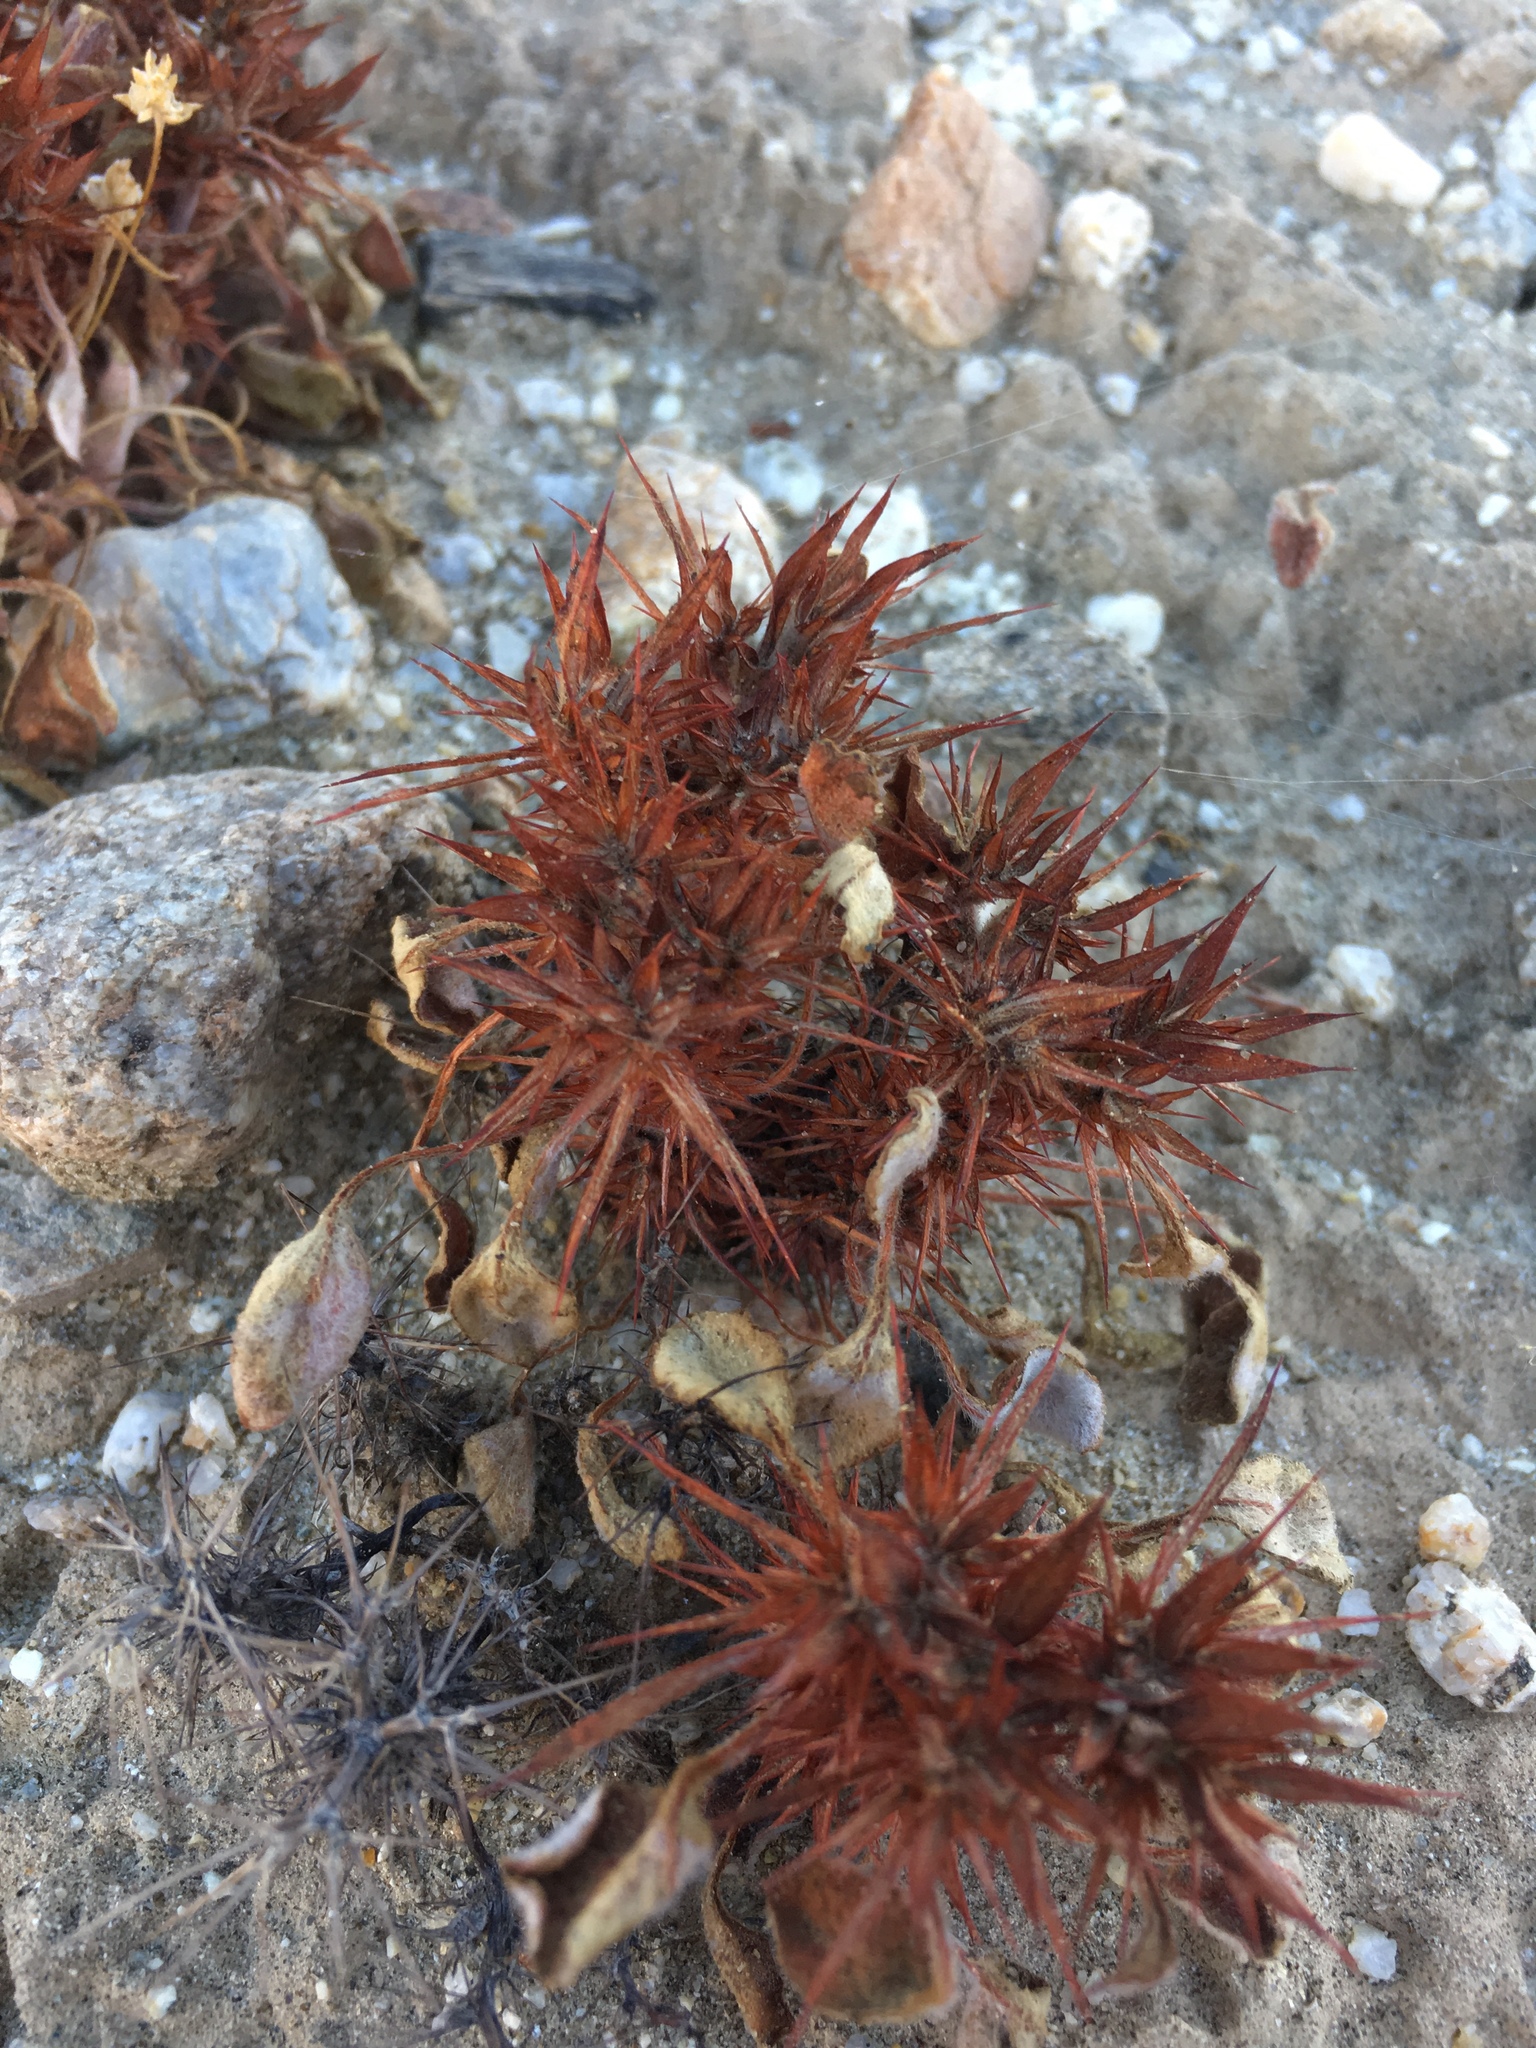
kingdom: Plantae
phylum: Tracheophyta
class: Magnoliopsida
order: Caryophyllales
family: Polygonaceae
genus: Chorizanthe
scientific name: Chorizanthe rigida
